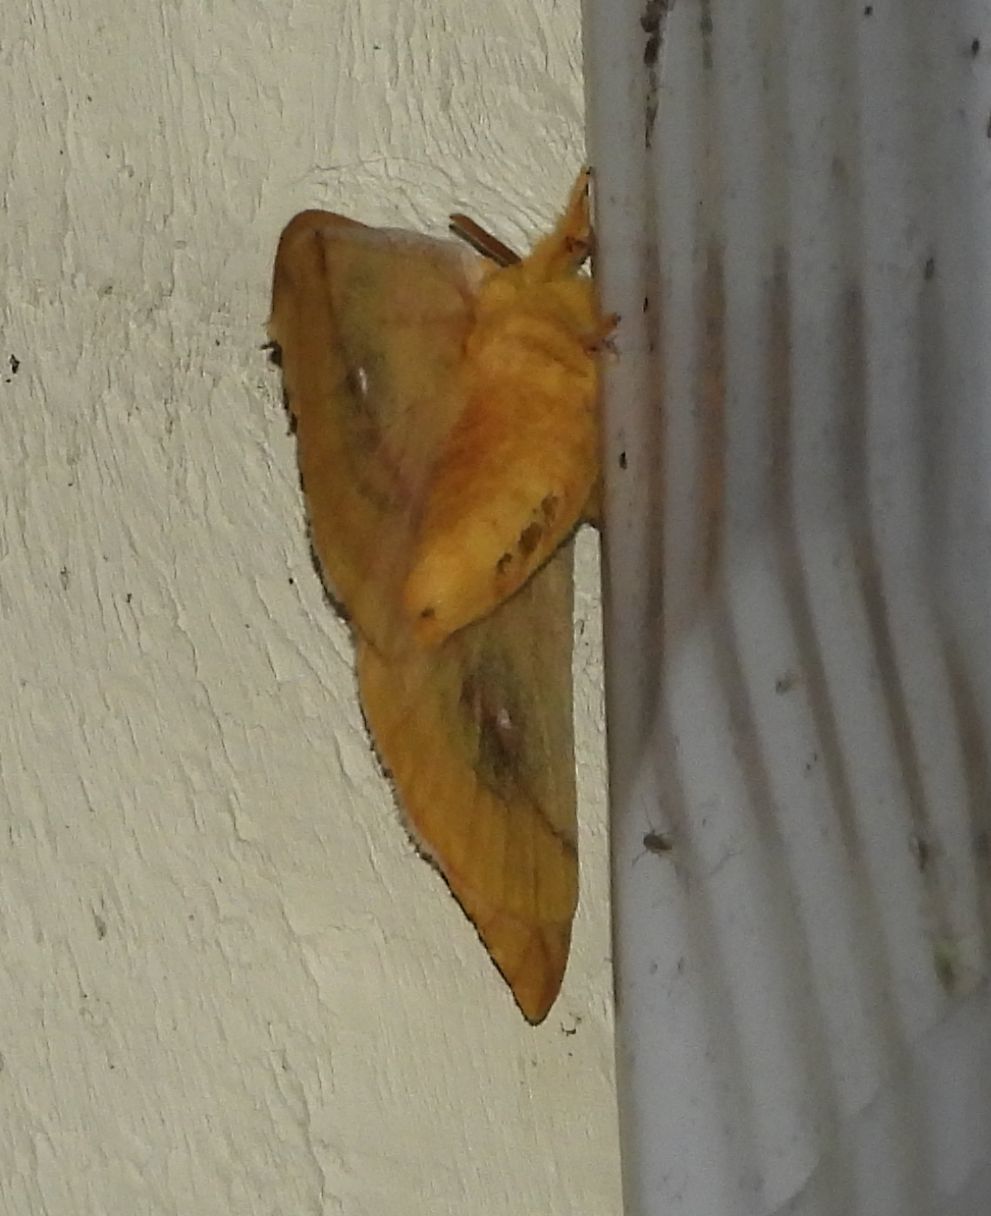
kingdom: Animalia
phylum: Arthropoda
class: Insecta
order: Lepidoptera
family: Saturniidae
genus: Automeris
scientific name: Automeris io
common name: Io moth
